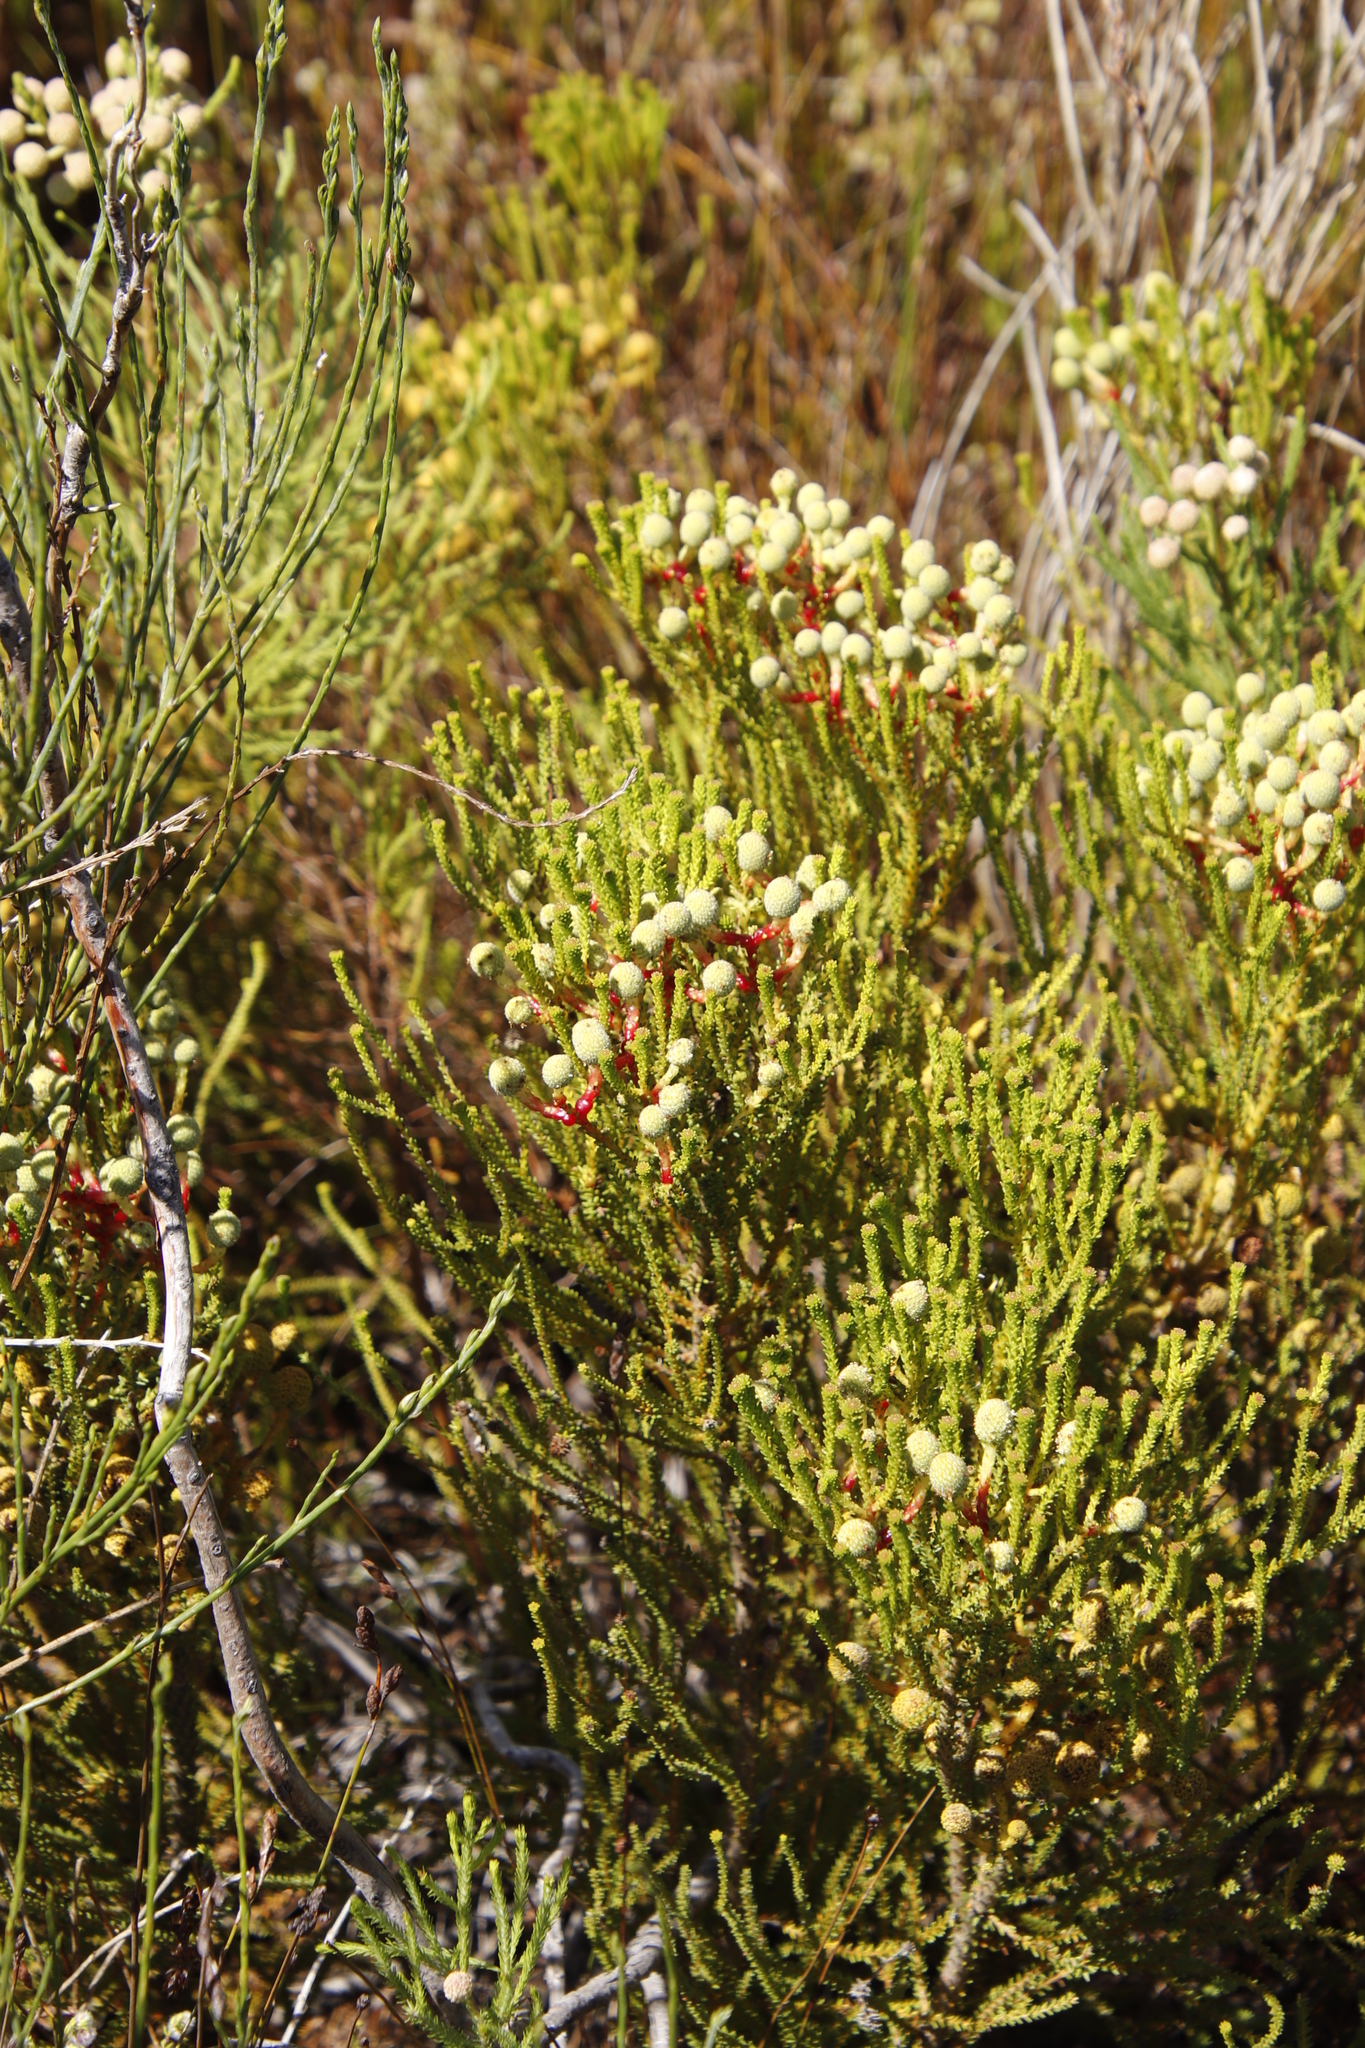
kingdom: Plantae
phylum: Tracheophyta
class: Magnoliopsida
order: Bruniales
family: Bruniaceae
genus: Berzelia
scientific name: Berzelia abrotanoides
